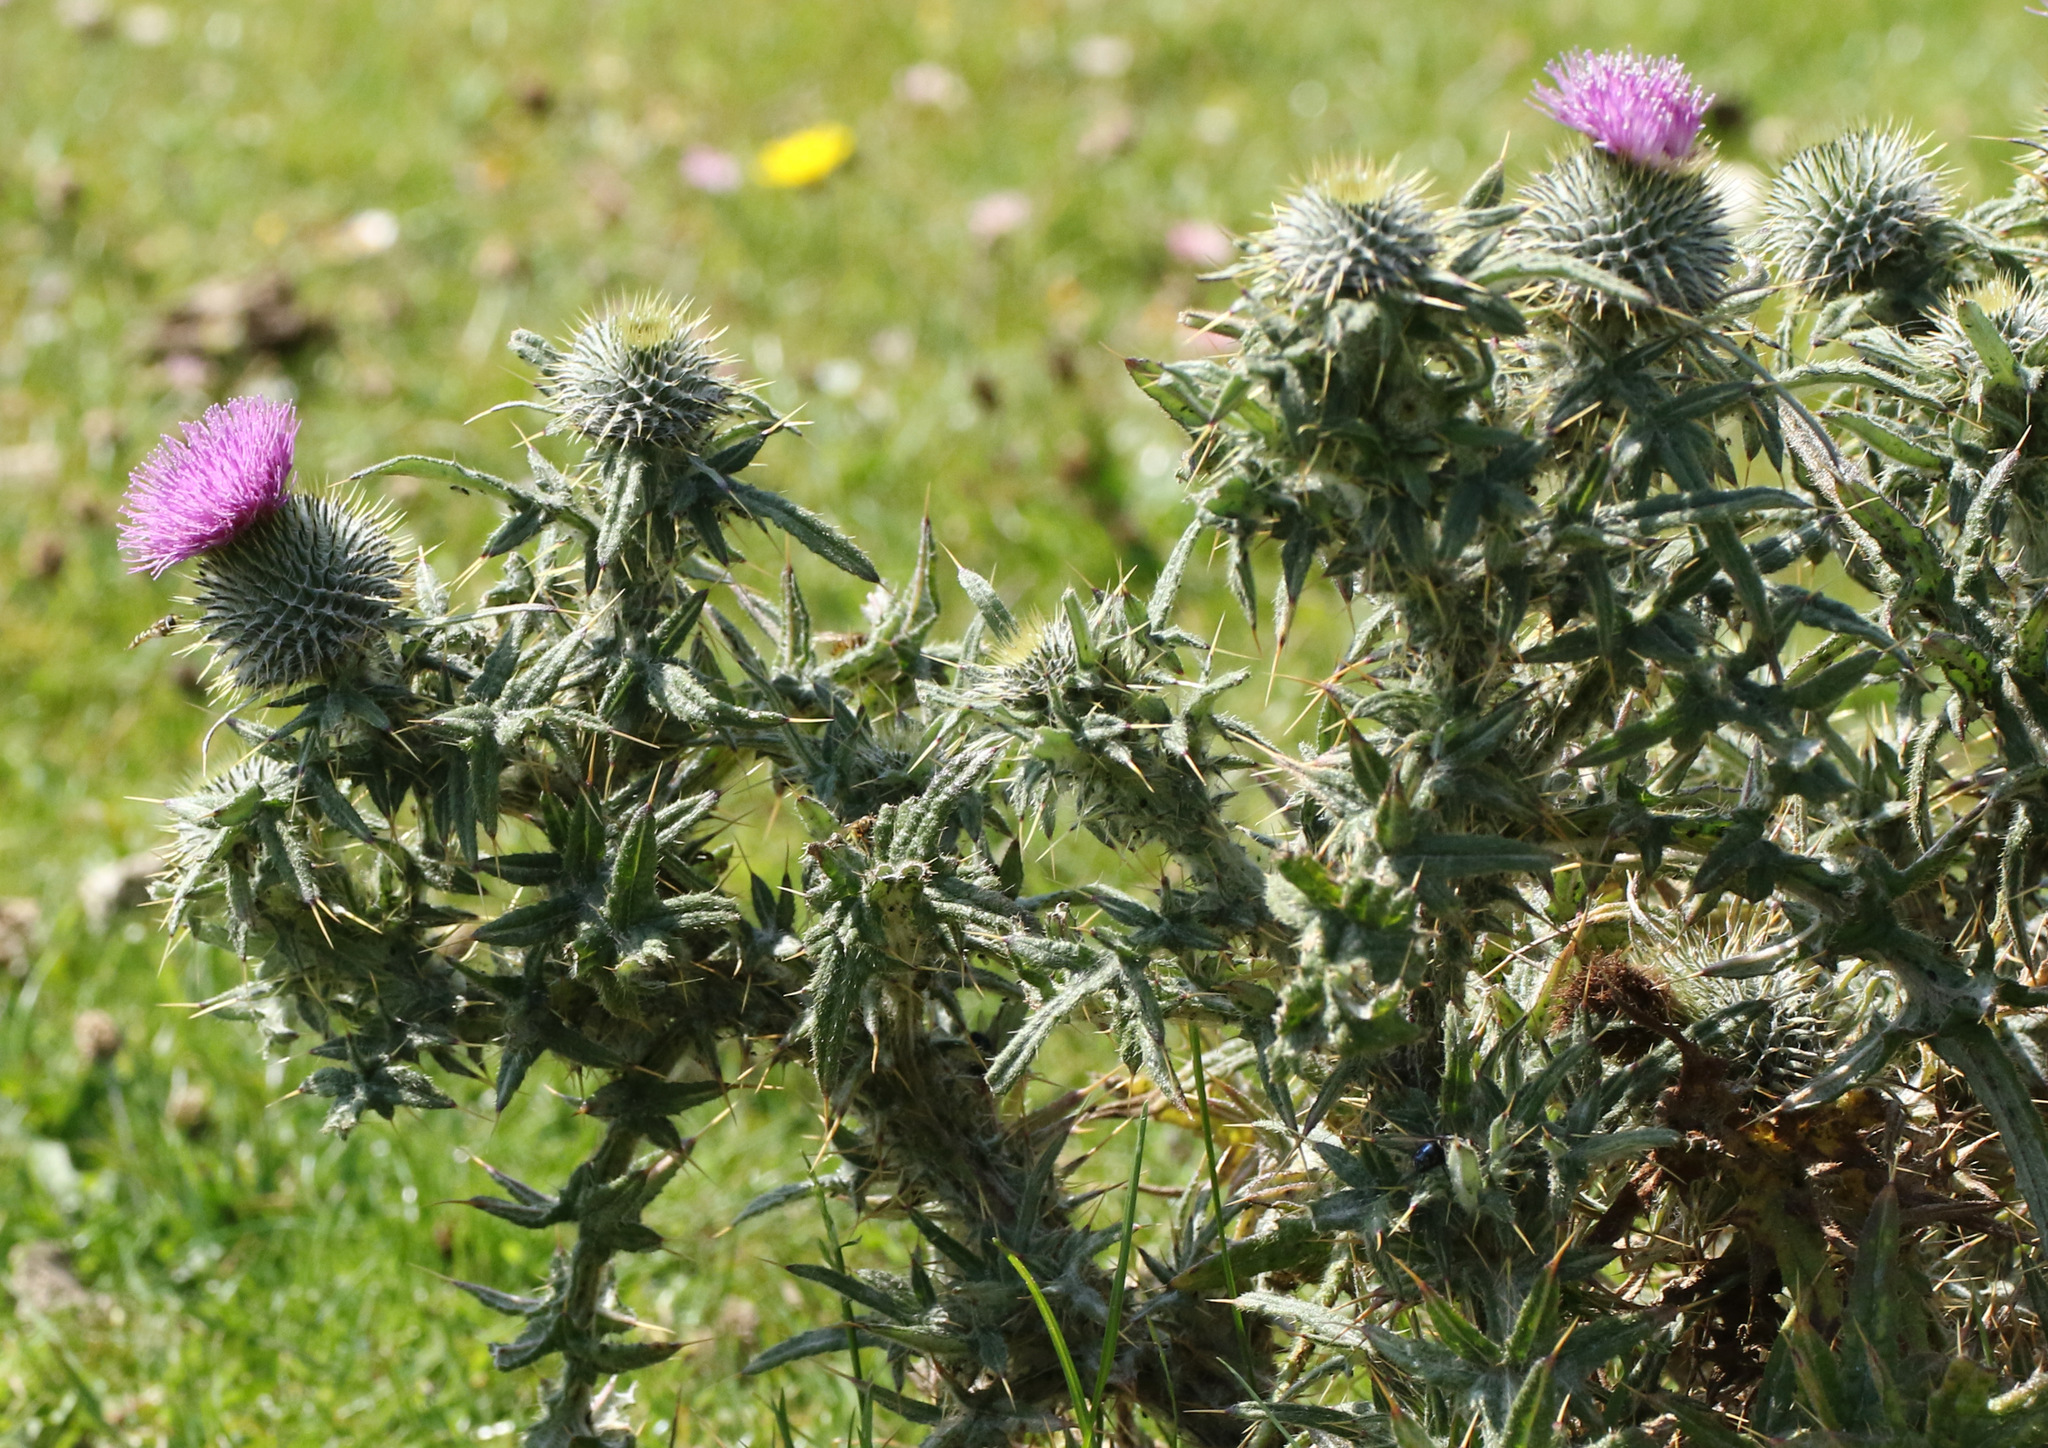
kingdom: Plantae
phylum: Tracheophyta
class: Magnoliopsida
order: Asterales
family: Asteraceae
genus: Cirsium
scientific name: Cirsium vulgare
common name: Bull thistle
